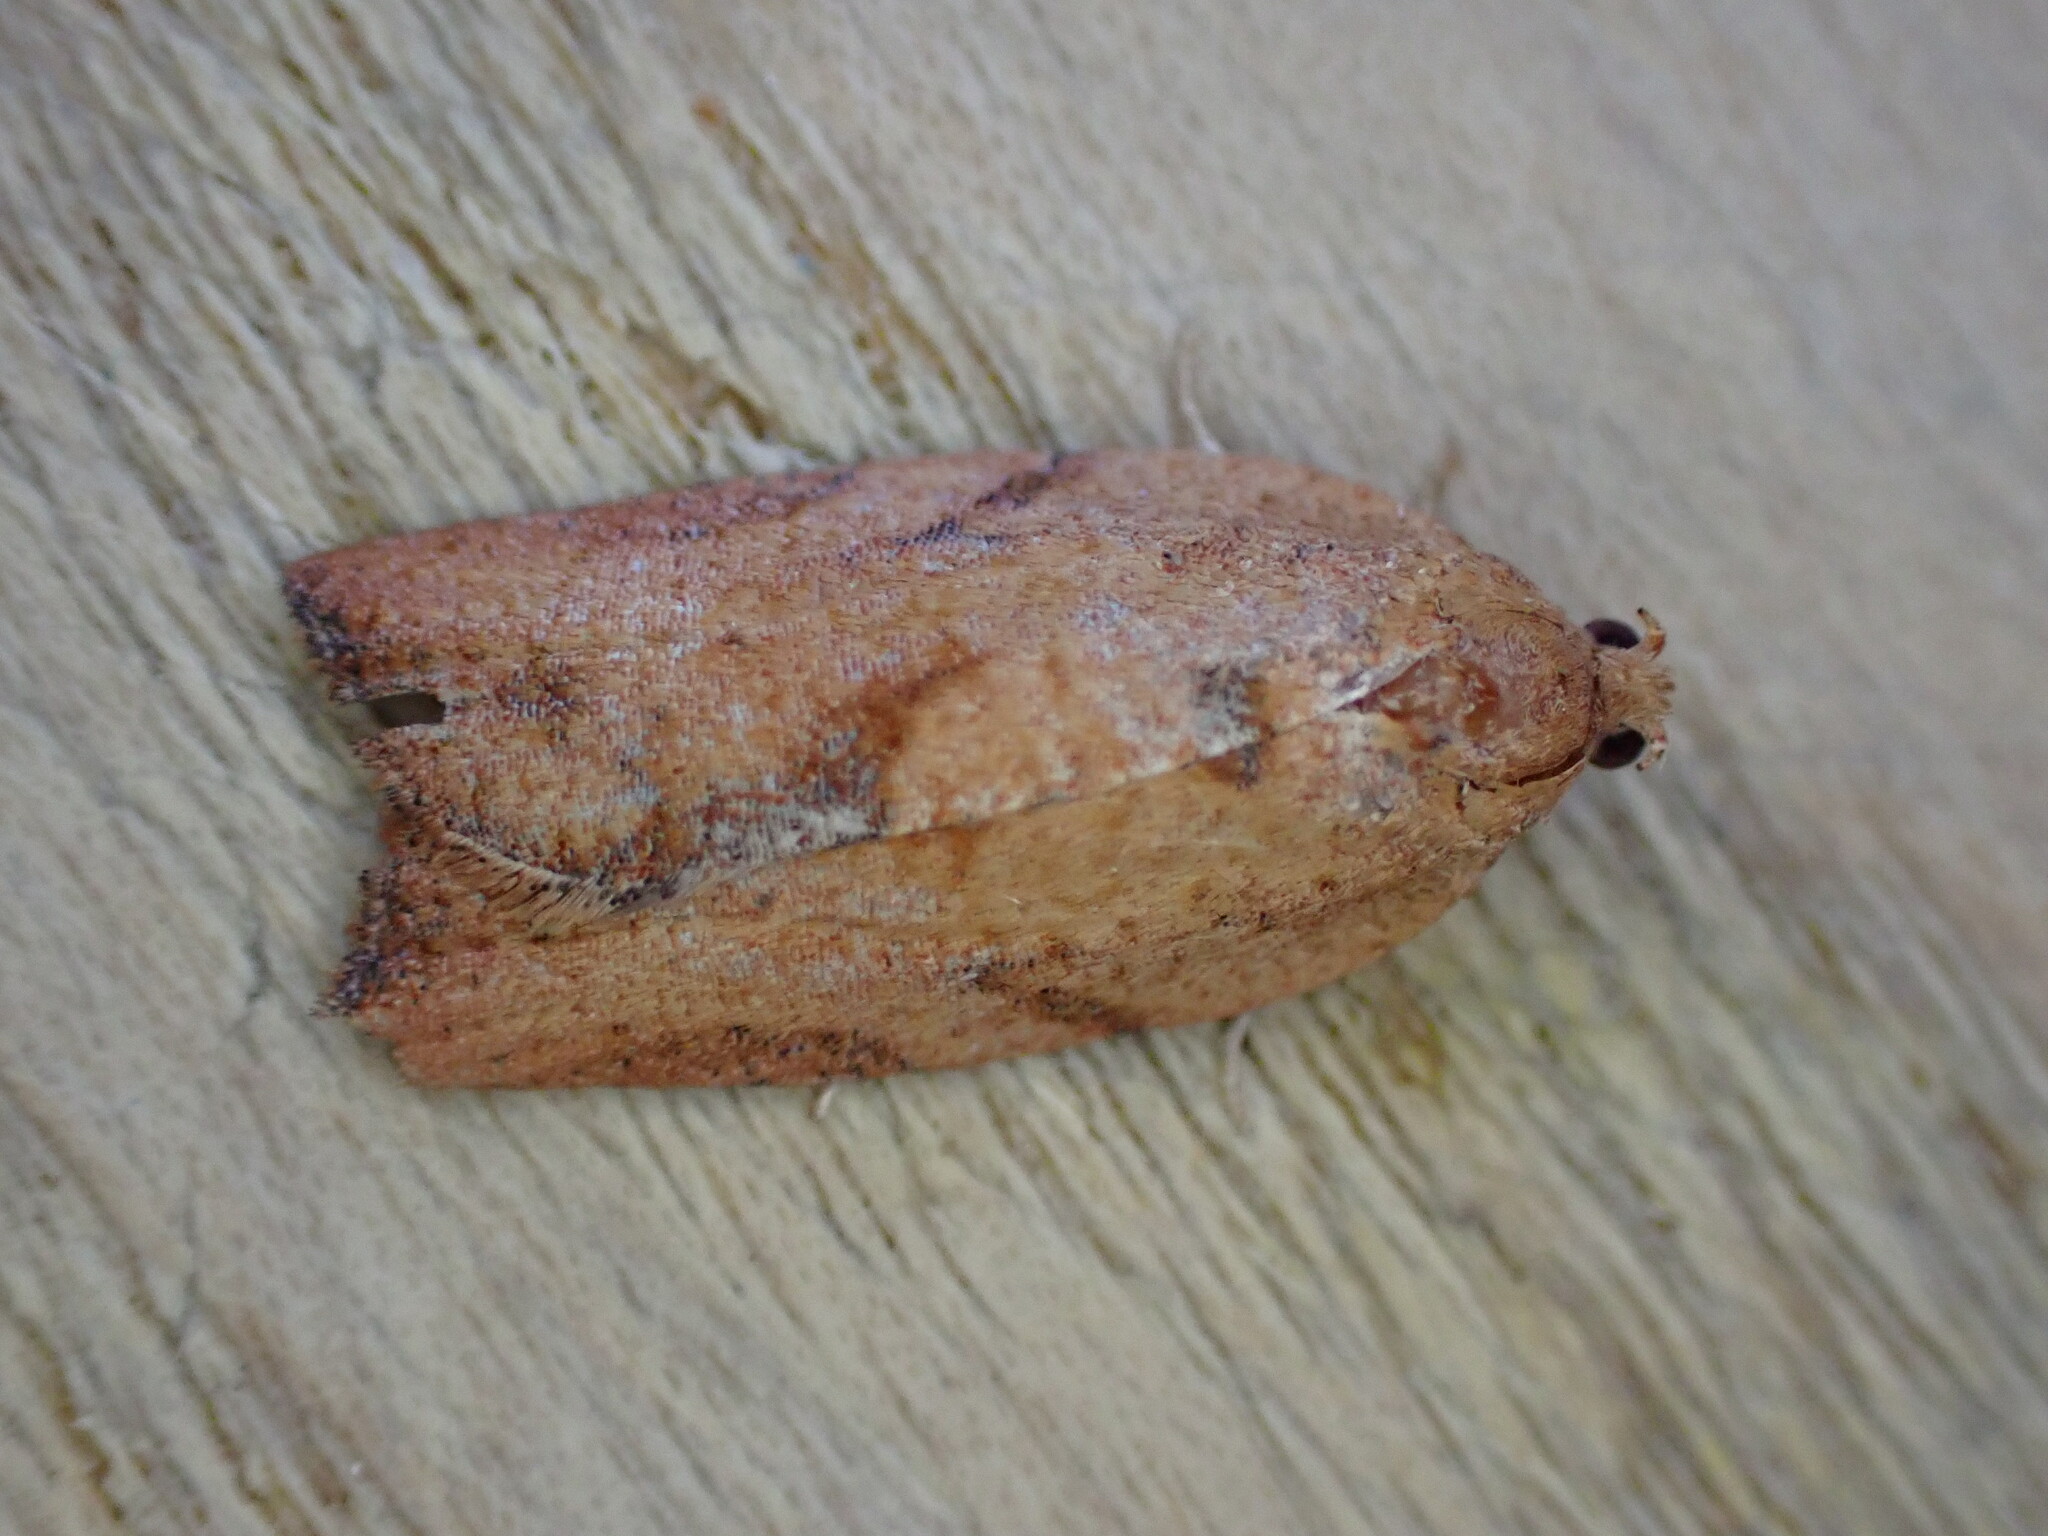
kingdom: Animalia
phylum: Arthropoda
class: Insecta
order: Lepidoptera
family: Tortricidae
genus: Epiphyas
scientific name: Epiphyas postvittana
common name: Light brown apple moth
